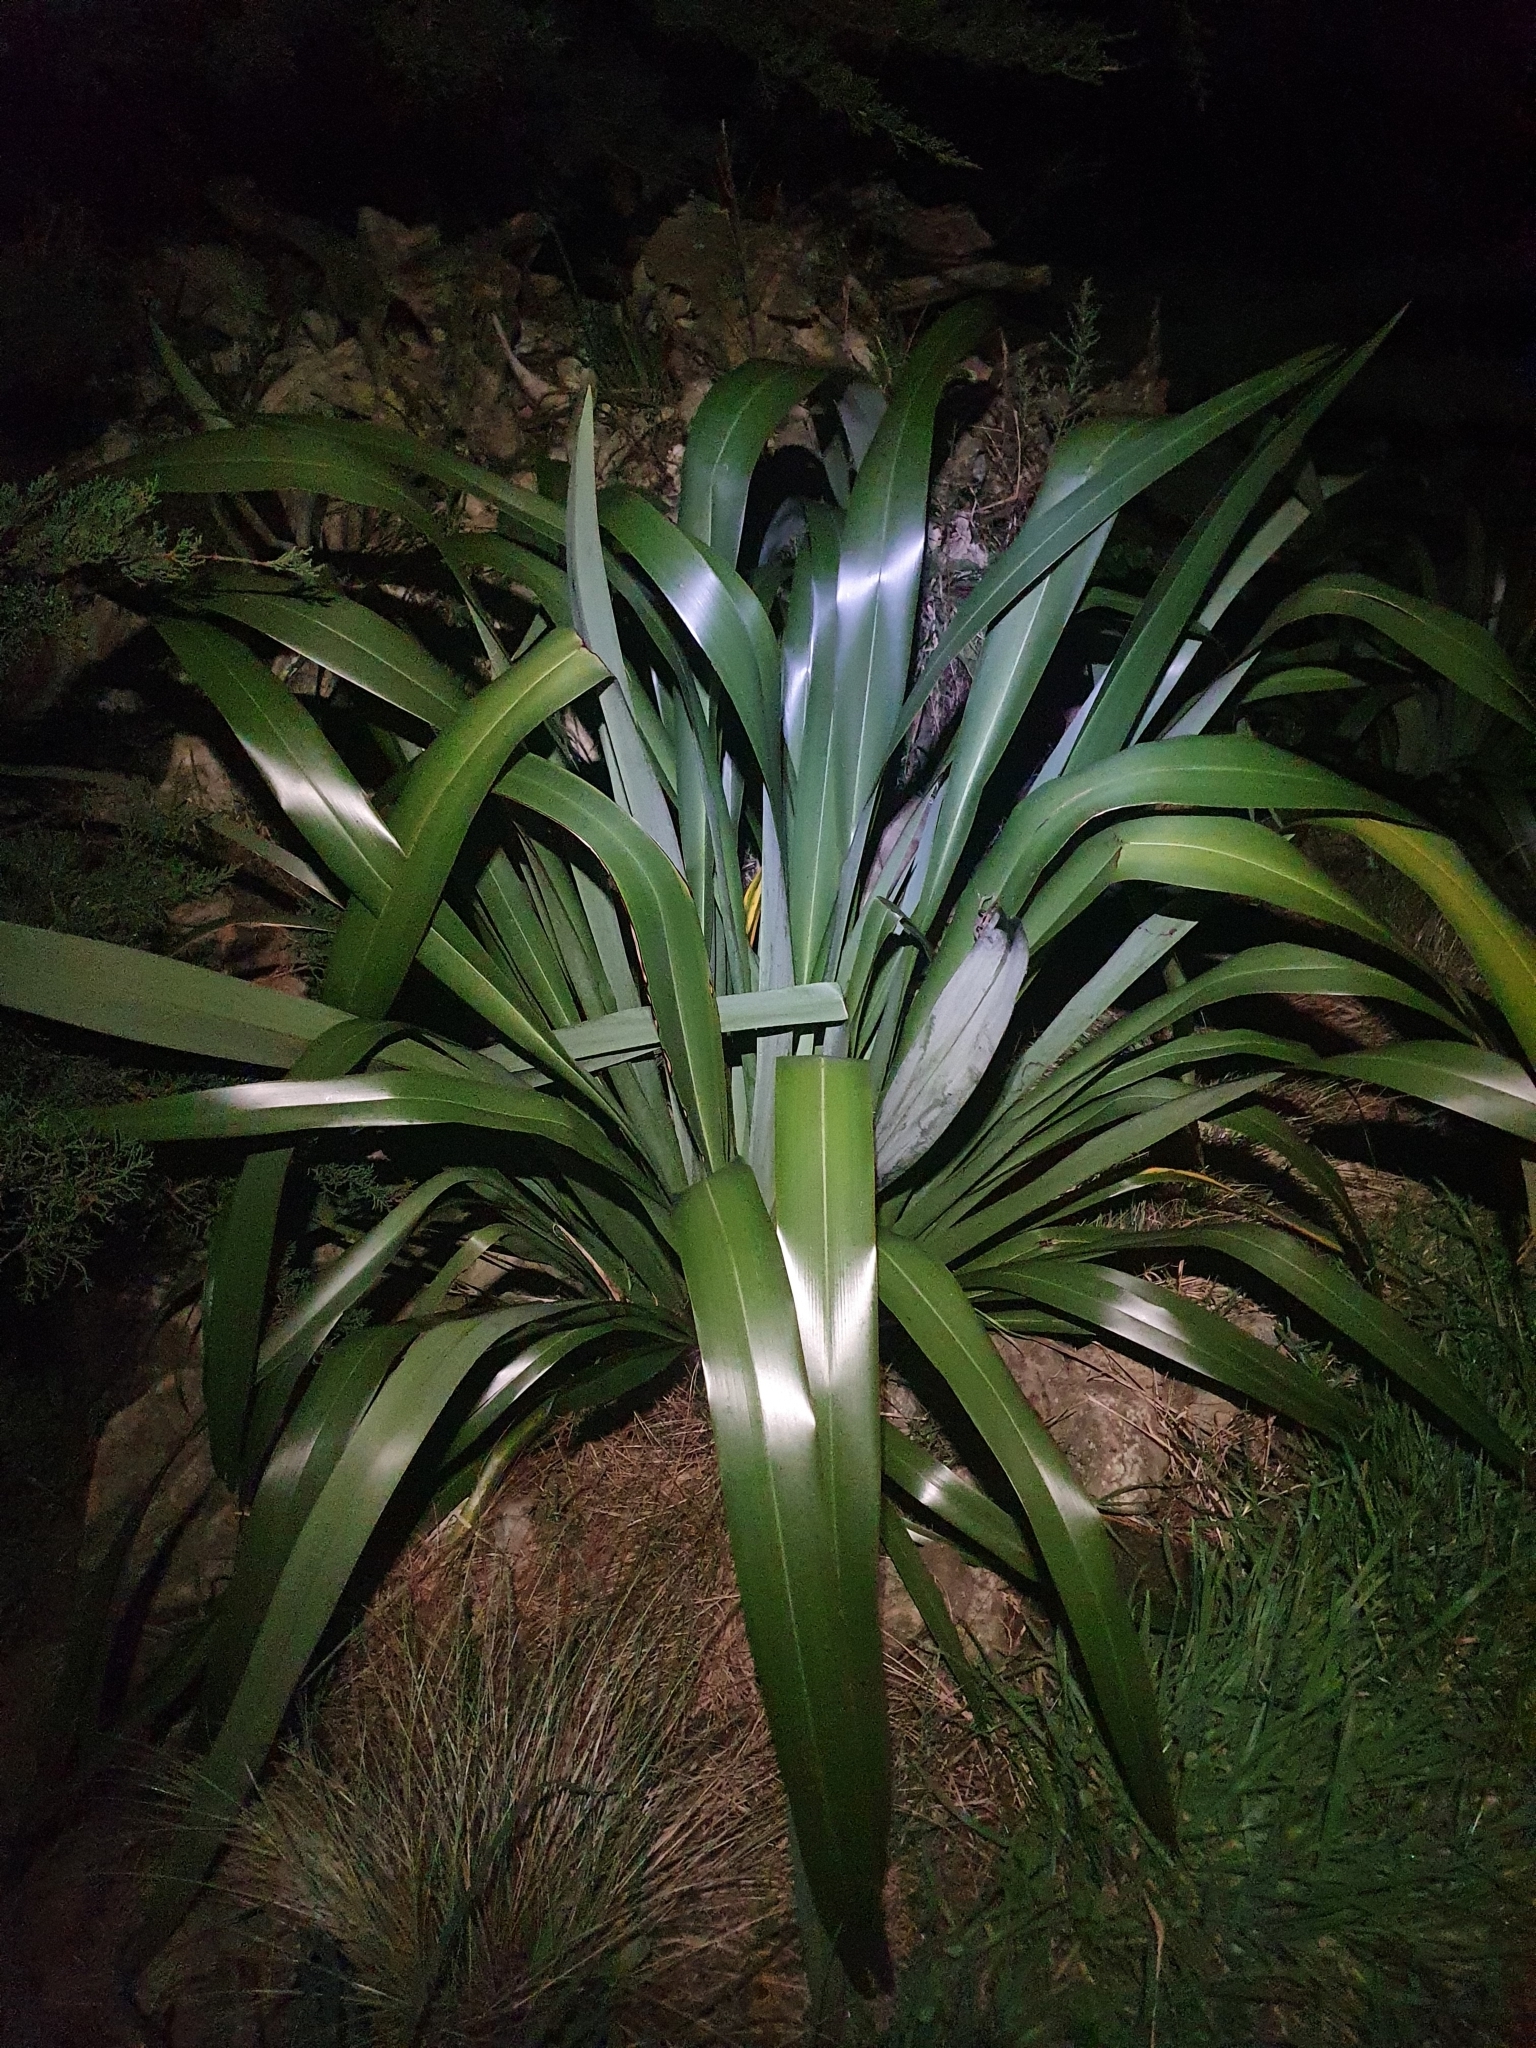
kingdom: Plantae
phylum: Tracheophyta
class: Liliopsida
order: Asparagales
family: Asphodelaceae
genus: Phormium
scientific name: Phormium tenax
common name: New zealand flax
